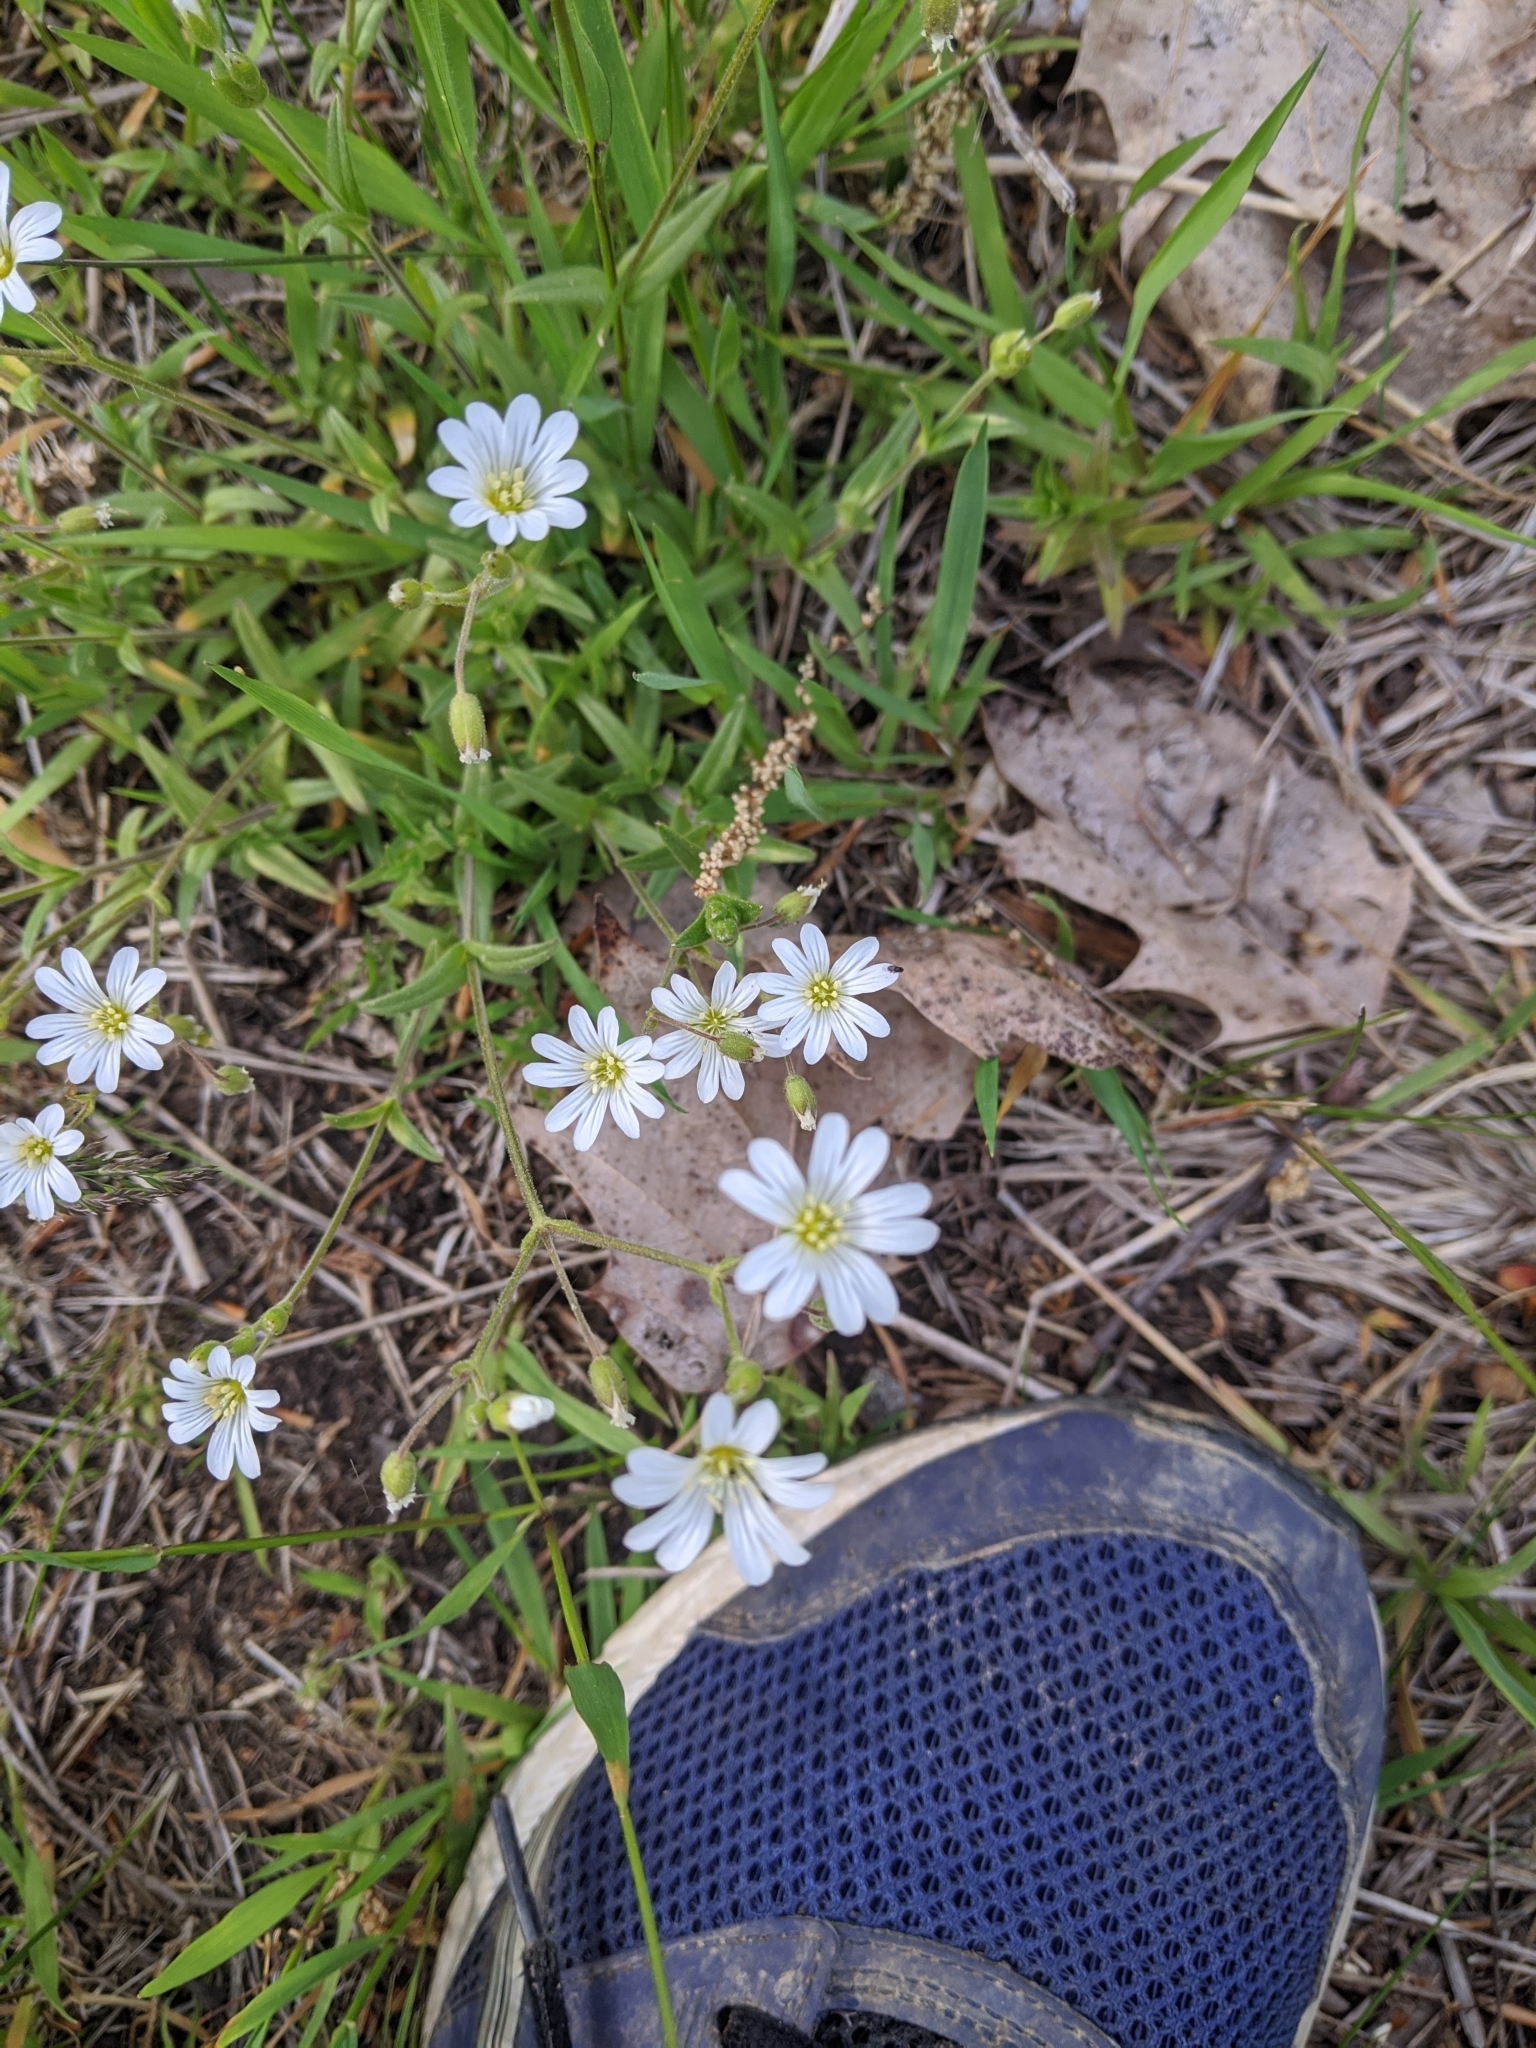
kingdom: Plantae
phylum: Tracheophyta
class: Magnoliopsida
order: Caryophyllales
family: Caryophyllaceae
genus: Cerastium
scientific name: Cerastium velutinum
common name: Barren chickweed
